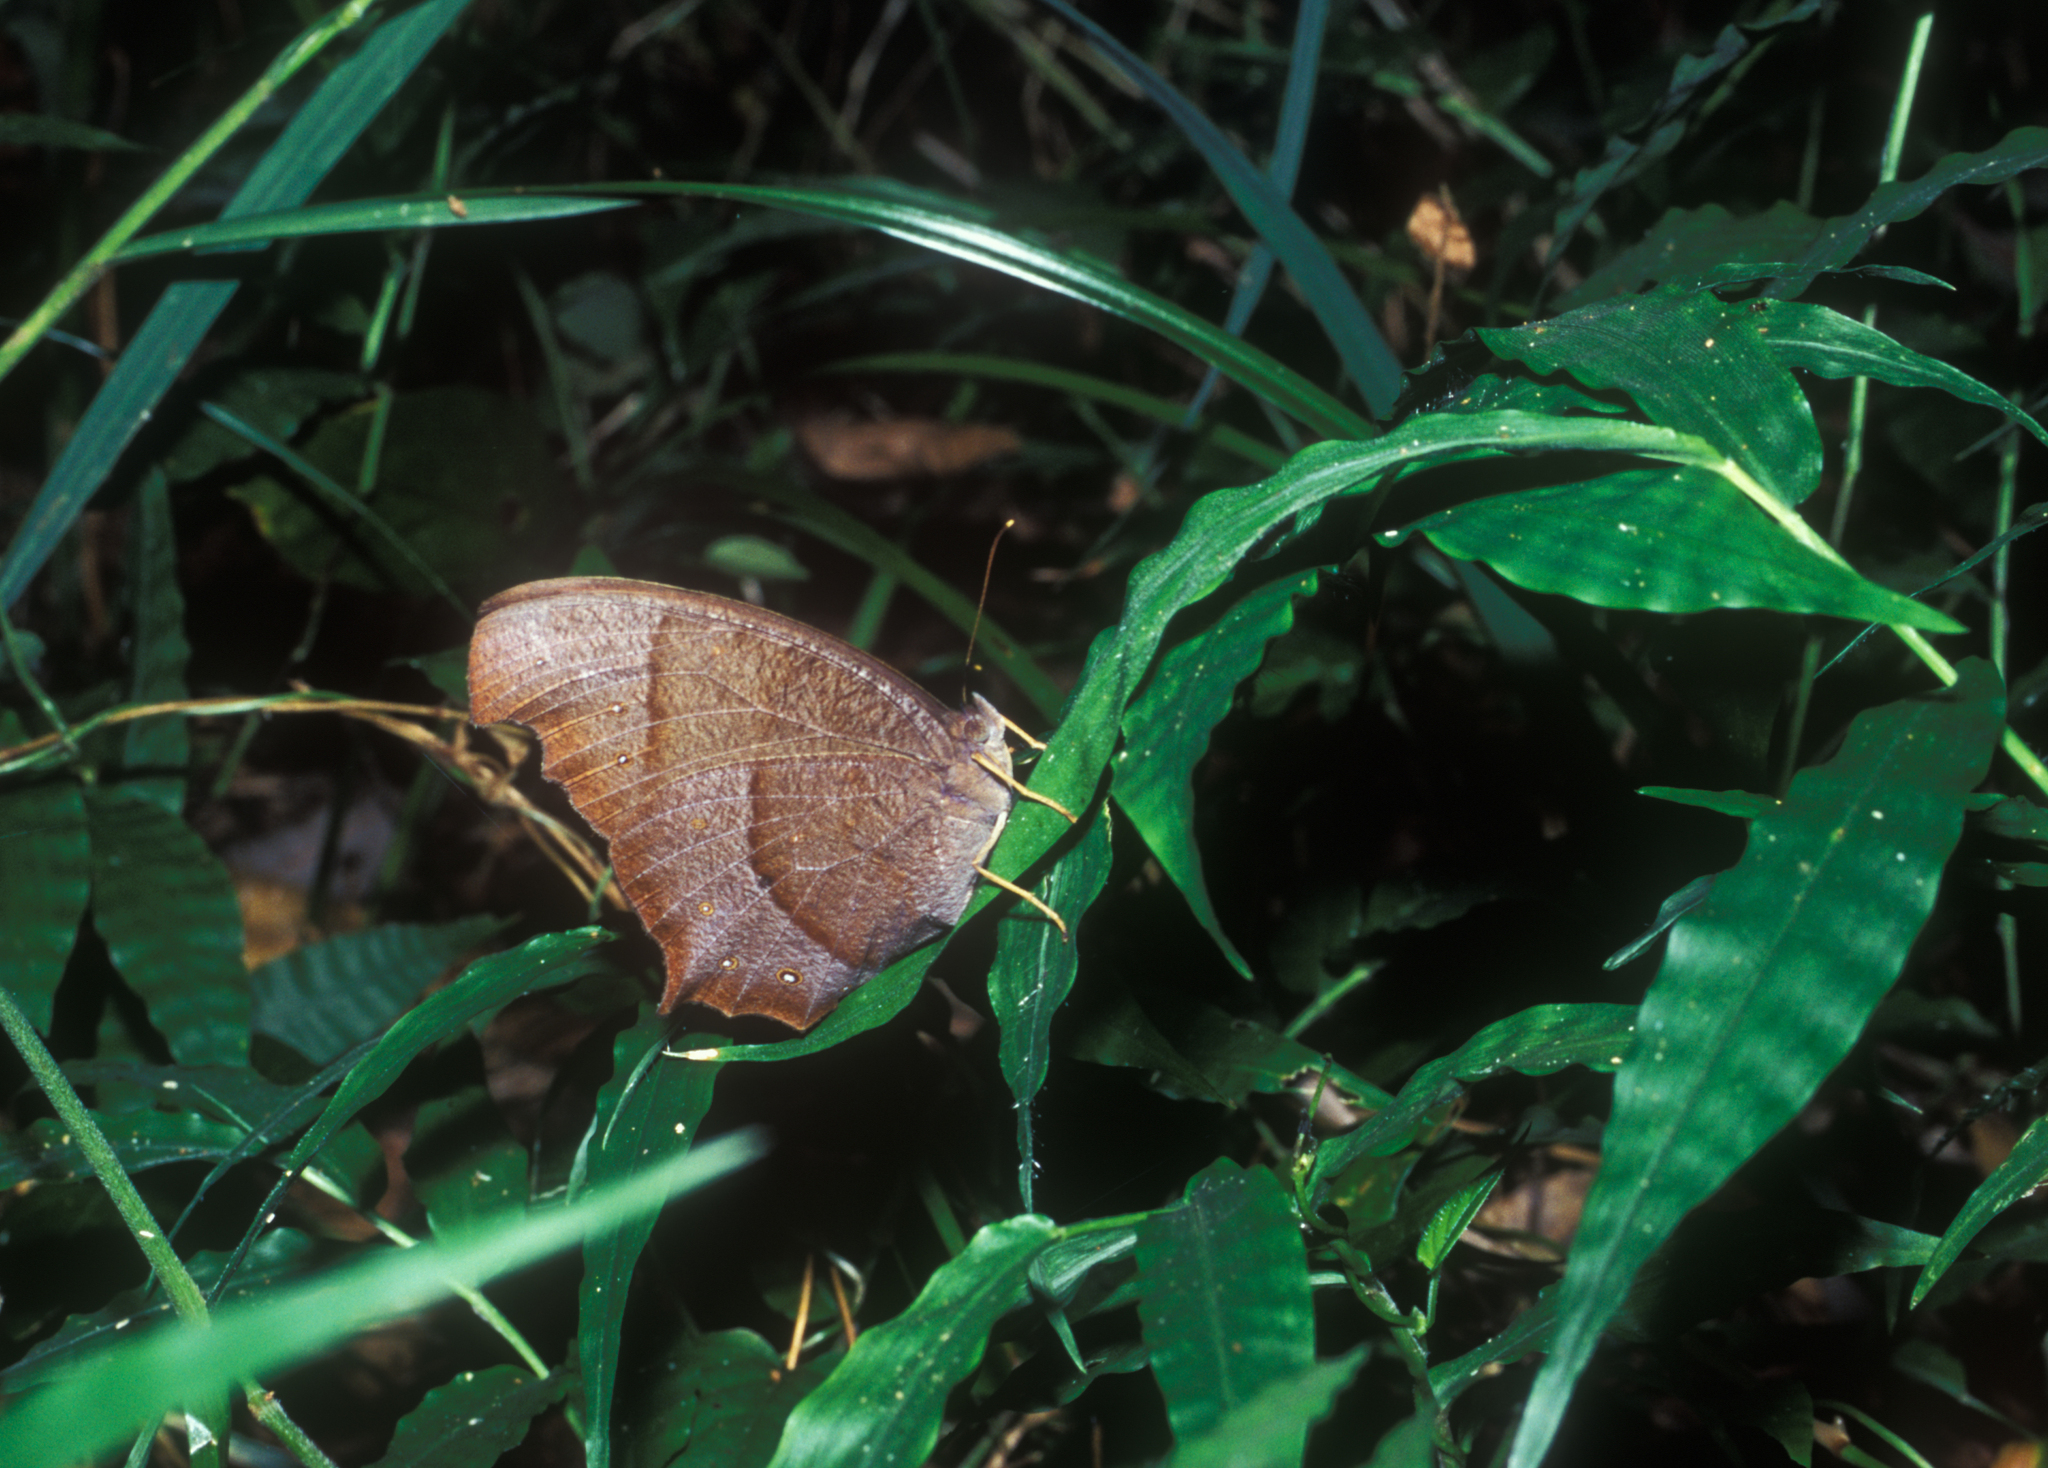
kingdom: Animalia
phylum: Arthropoda
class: Insecta
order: Lepidoptera
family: Nymphalidae
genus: Melanitis
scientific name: Melanitis phedima
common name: Dark evening brown
